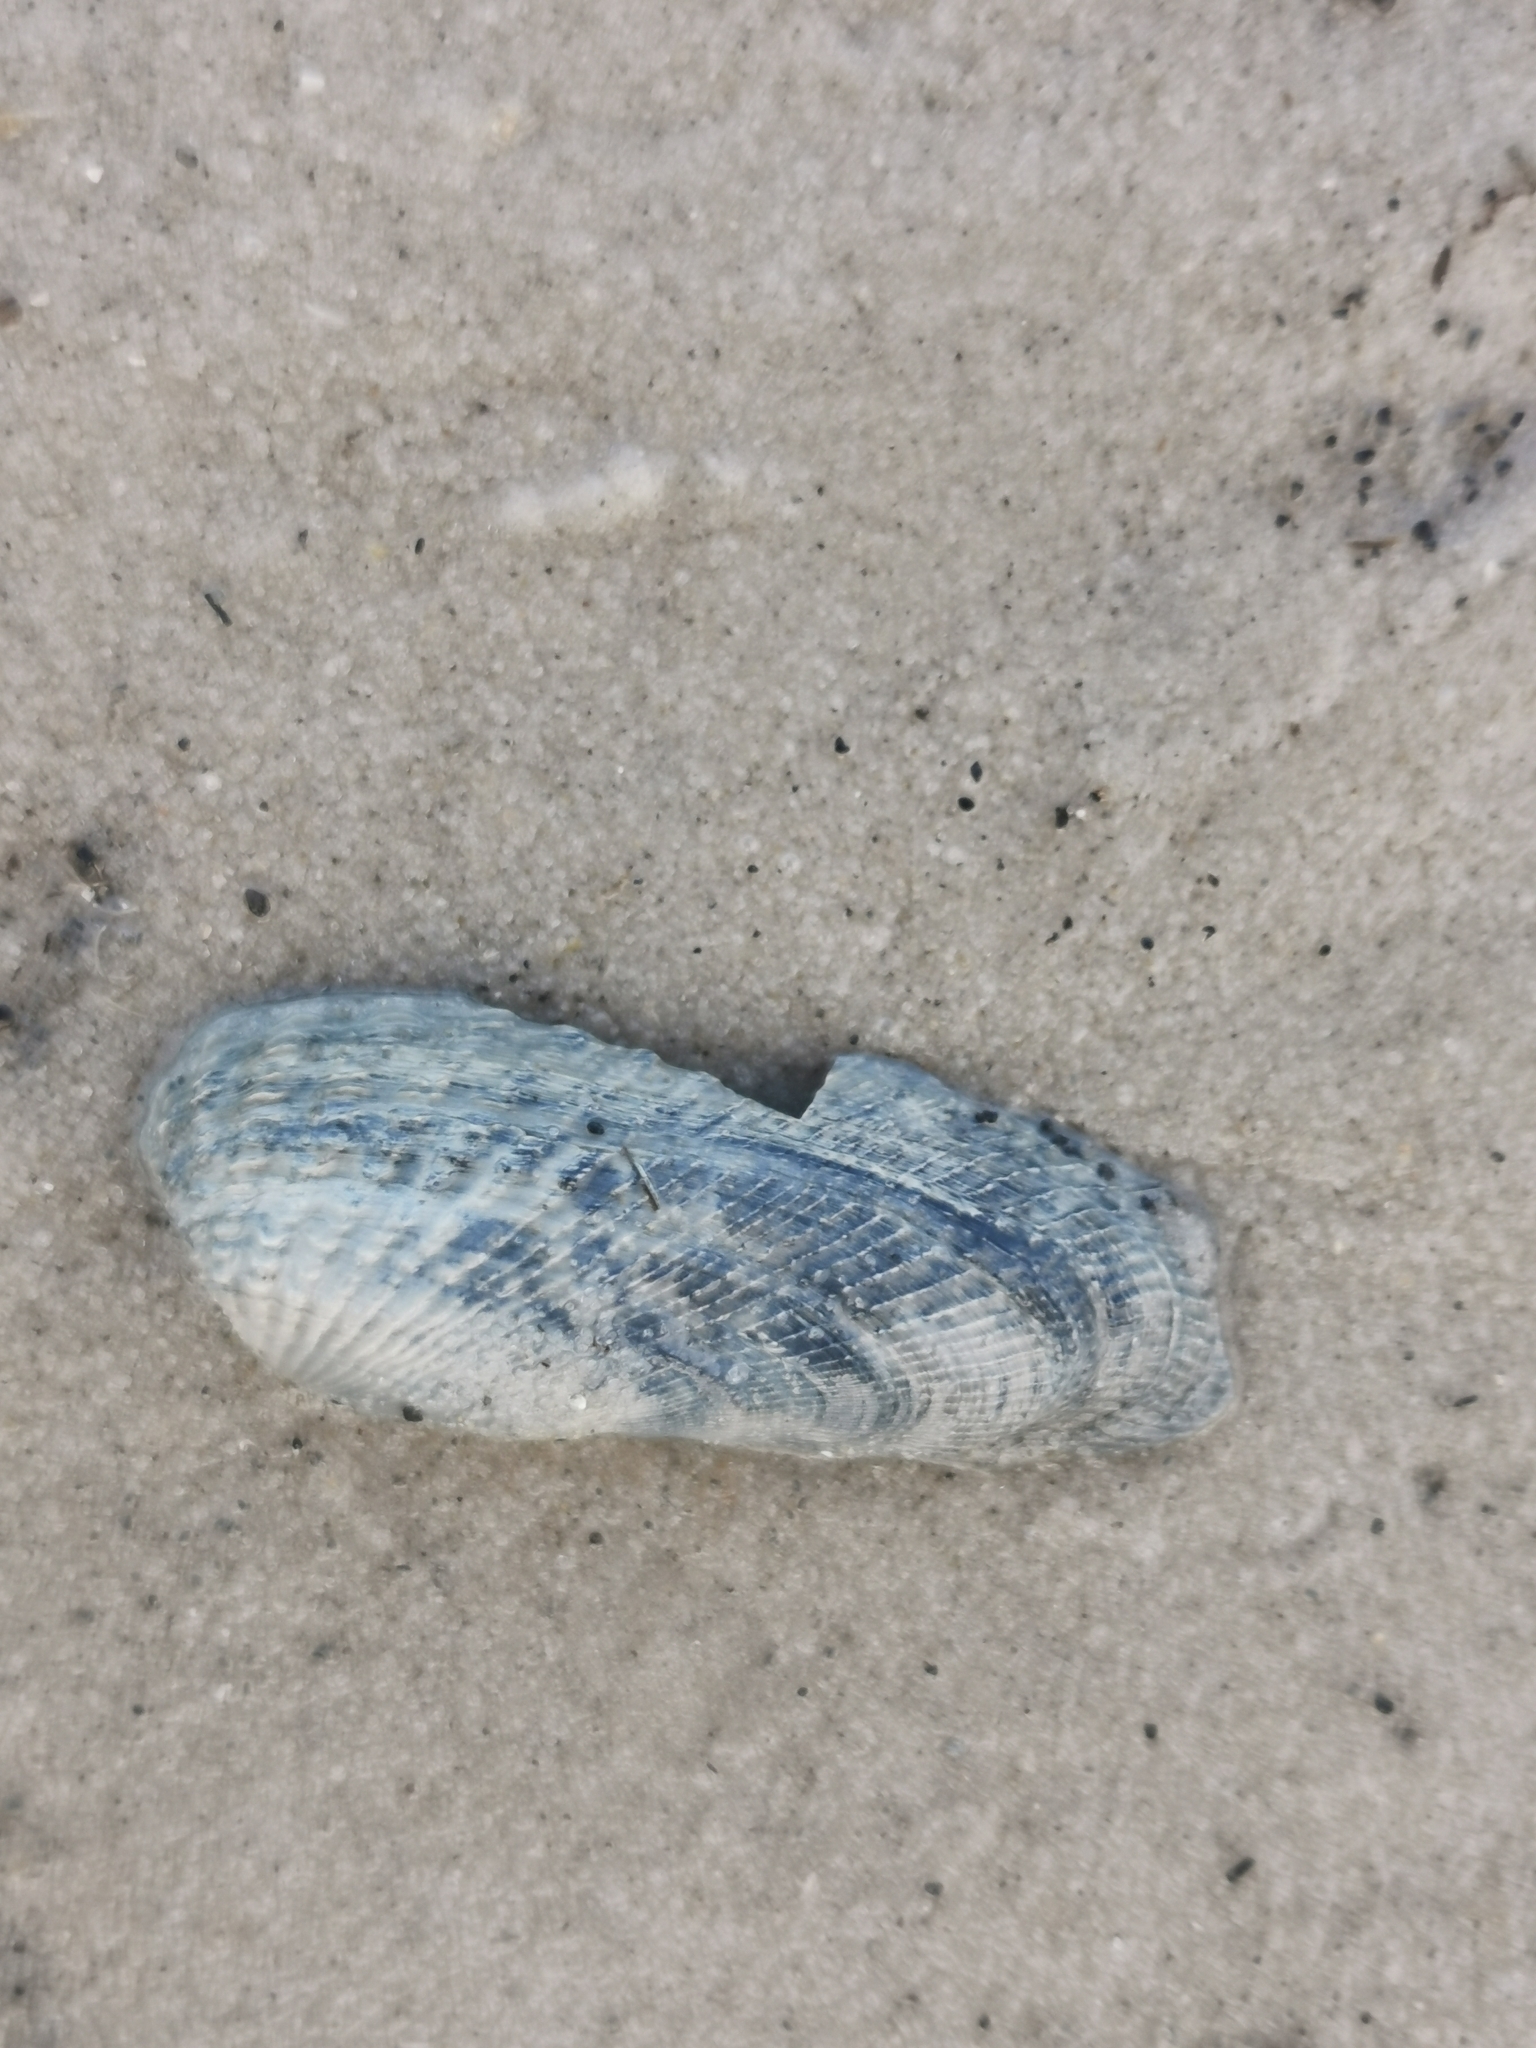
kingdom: Animalia
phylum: Mollusca
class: Bivalvia
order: Venerida
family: Veneridae
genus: Petricolaria
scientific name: Petricolaria pholadiformis
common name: American piddock
